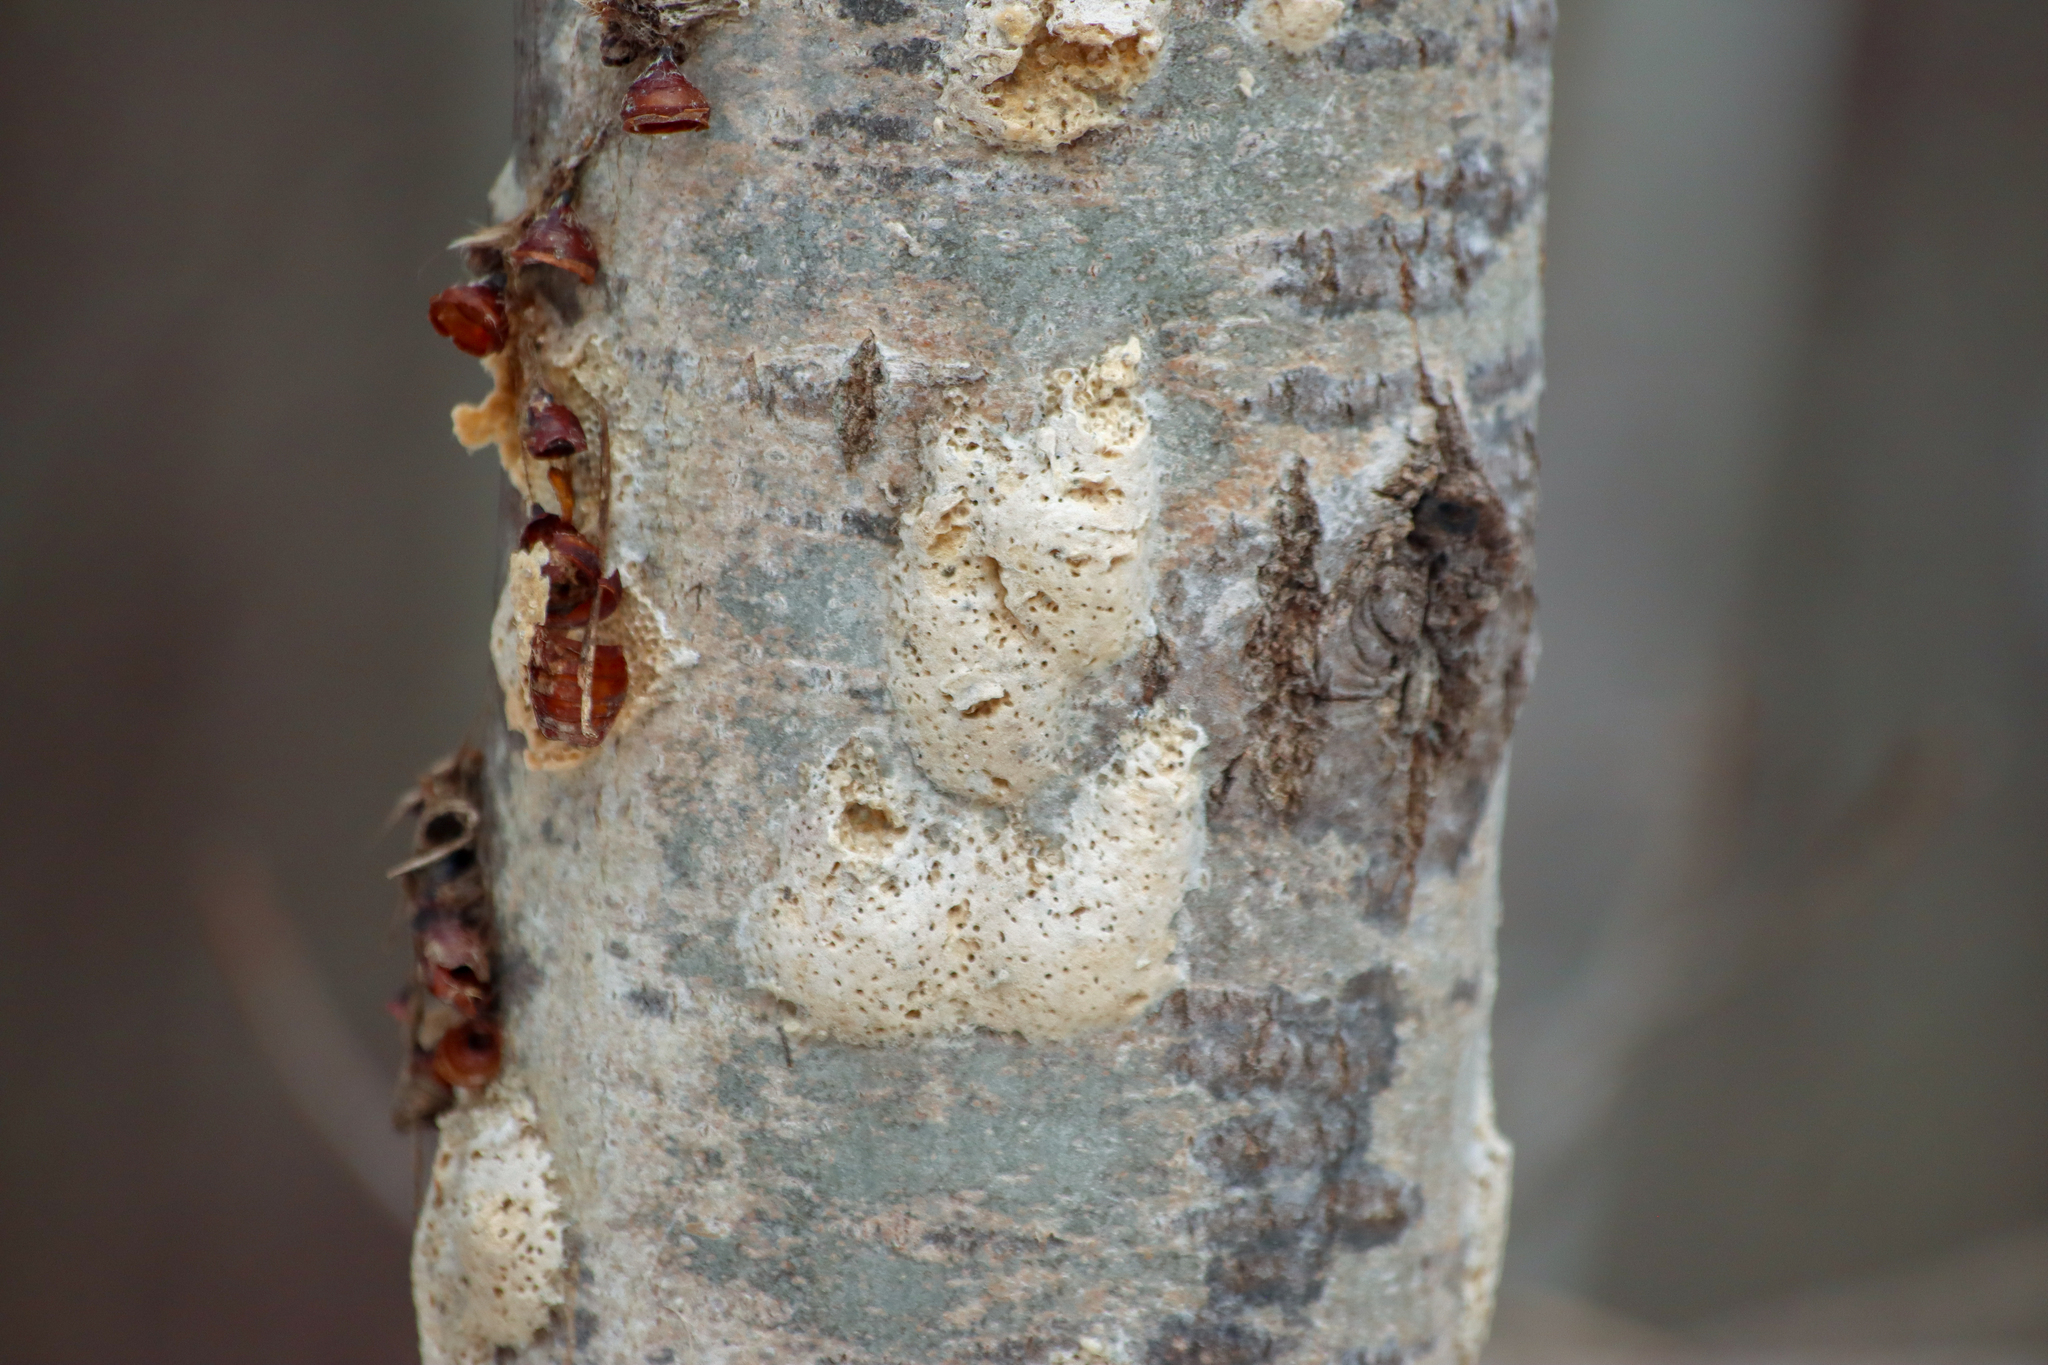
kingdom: Animalia
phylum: Arthropoda
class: Insecta
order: Lepidoptera
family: Erebidae
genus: Lymantria
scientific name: Lymantria dispar
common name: Gypsy moth
